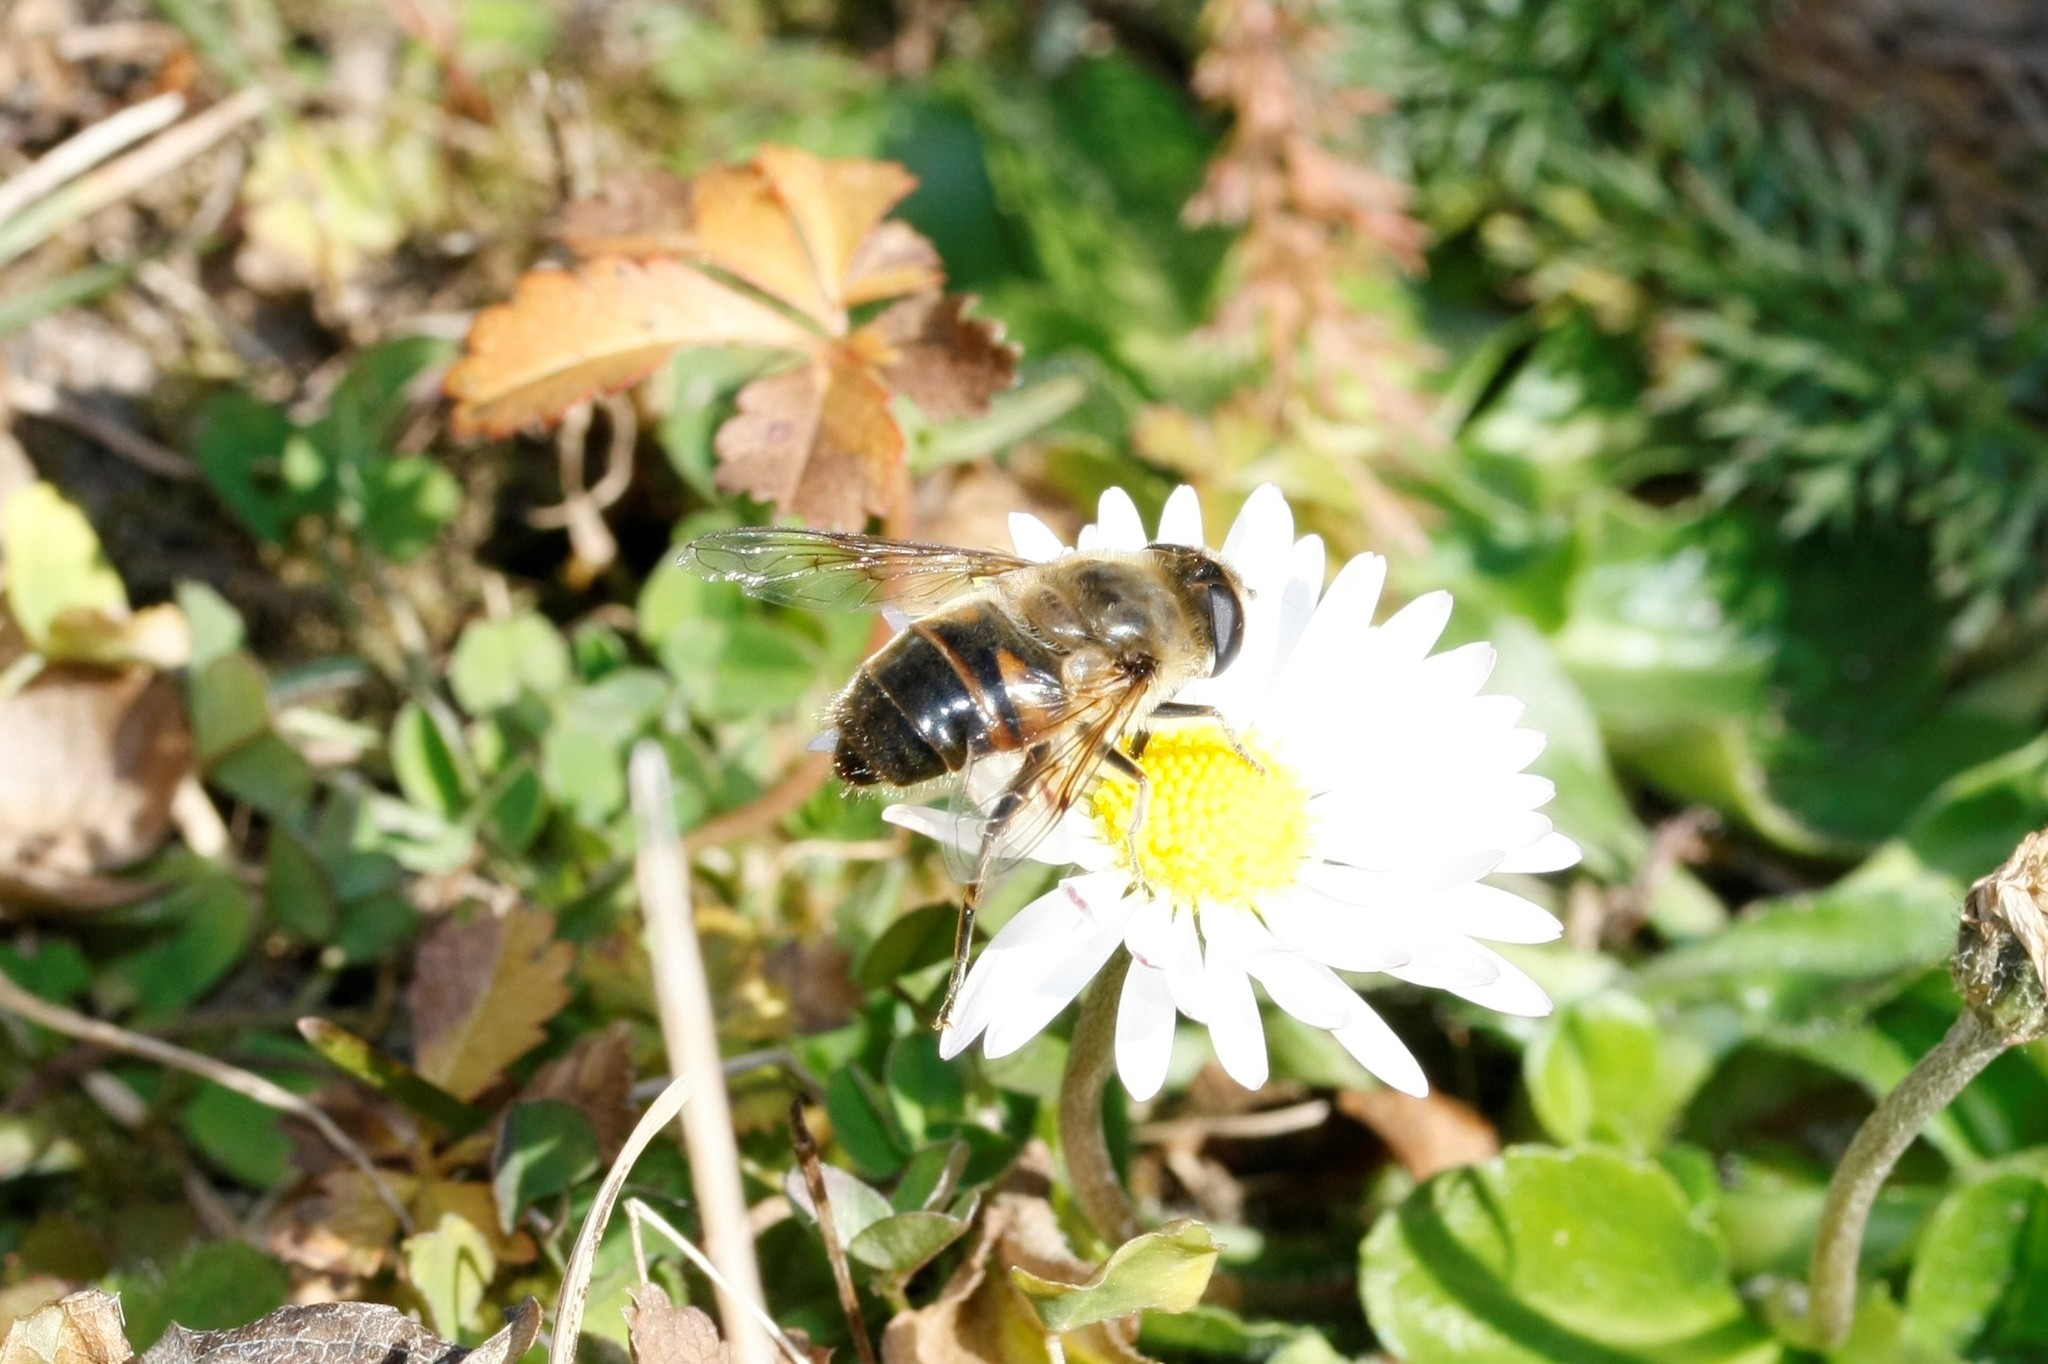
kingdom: Animalia
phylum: Arthropoda
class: Insecta
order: Diptera
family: Syrphidae
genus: Eristalis
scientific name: Eristalis tenax
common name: Drone fly
